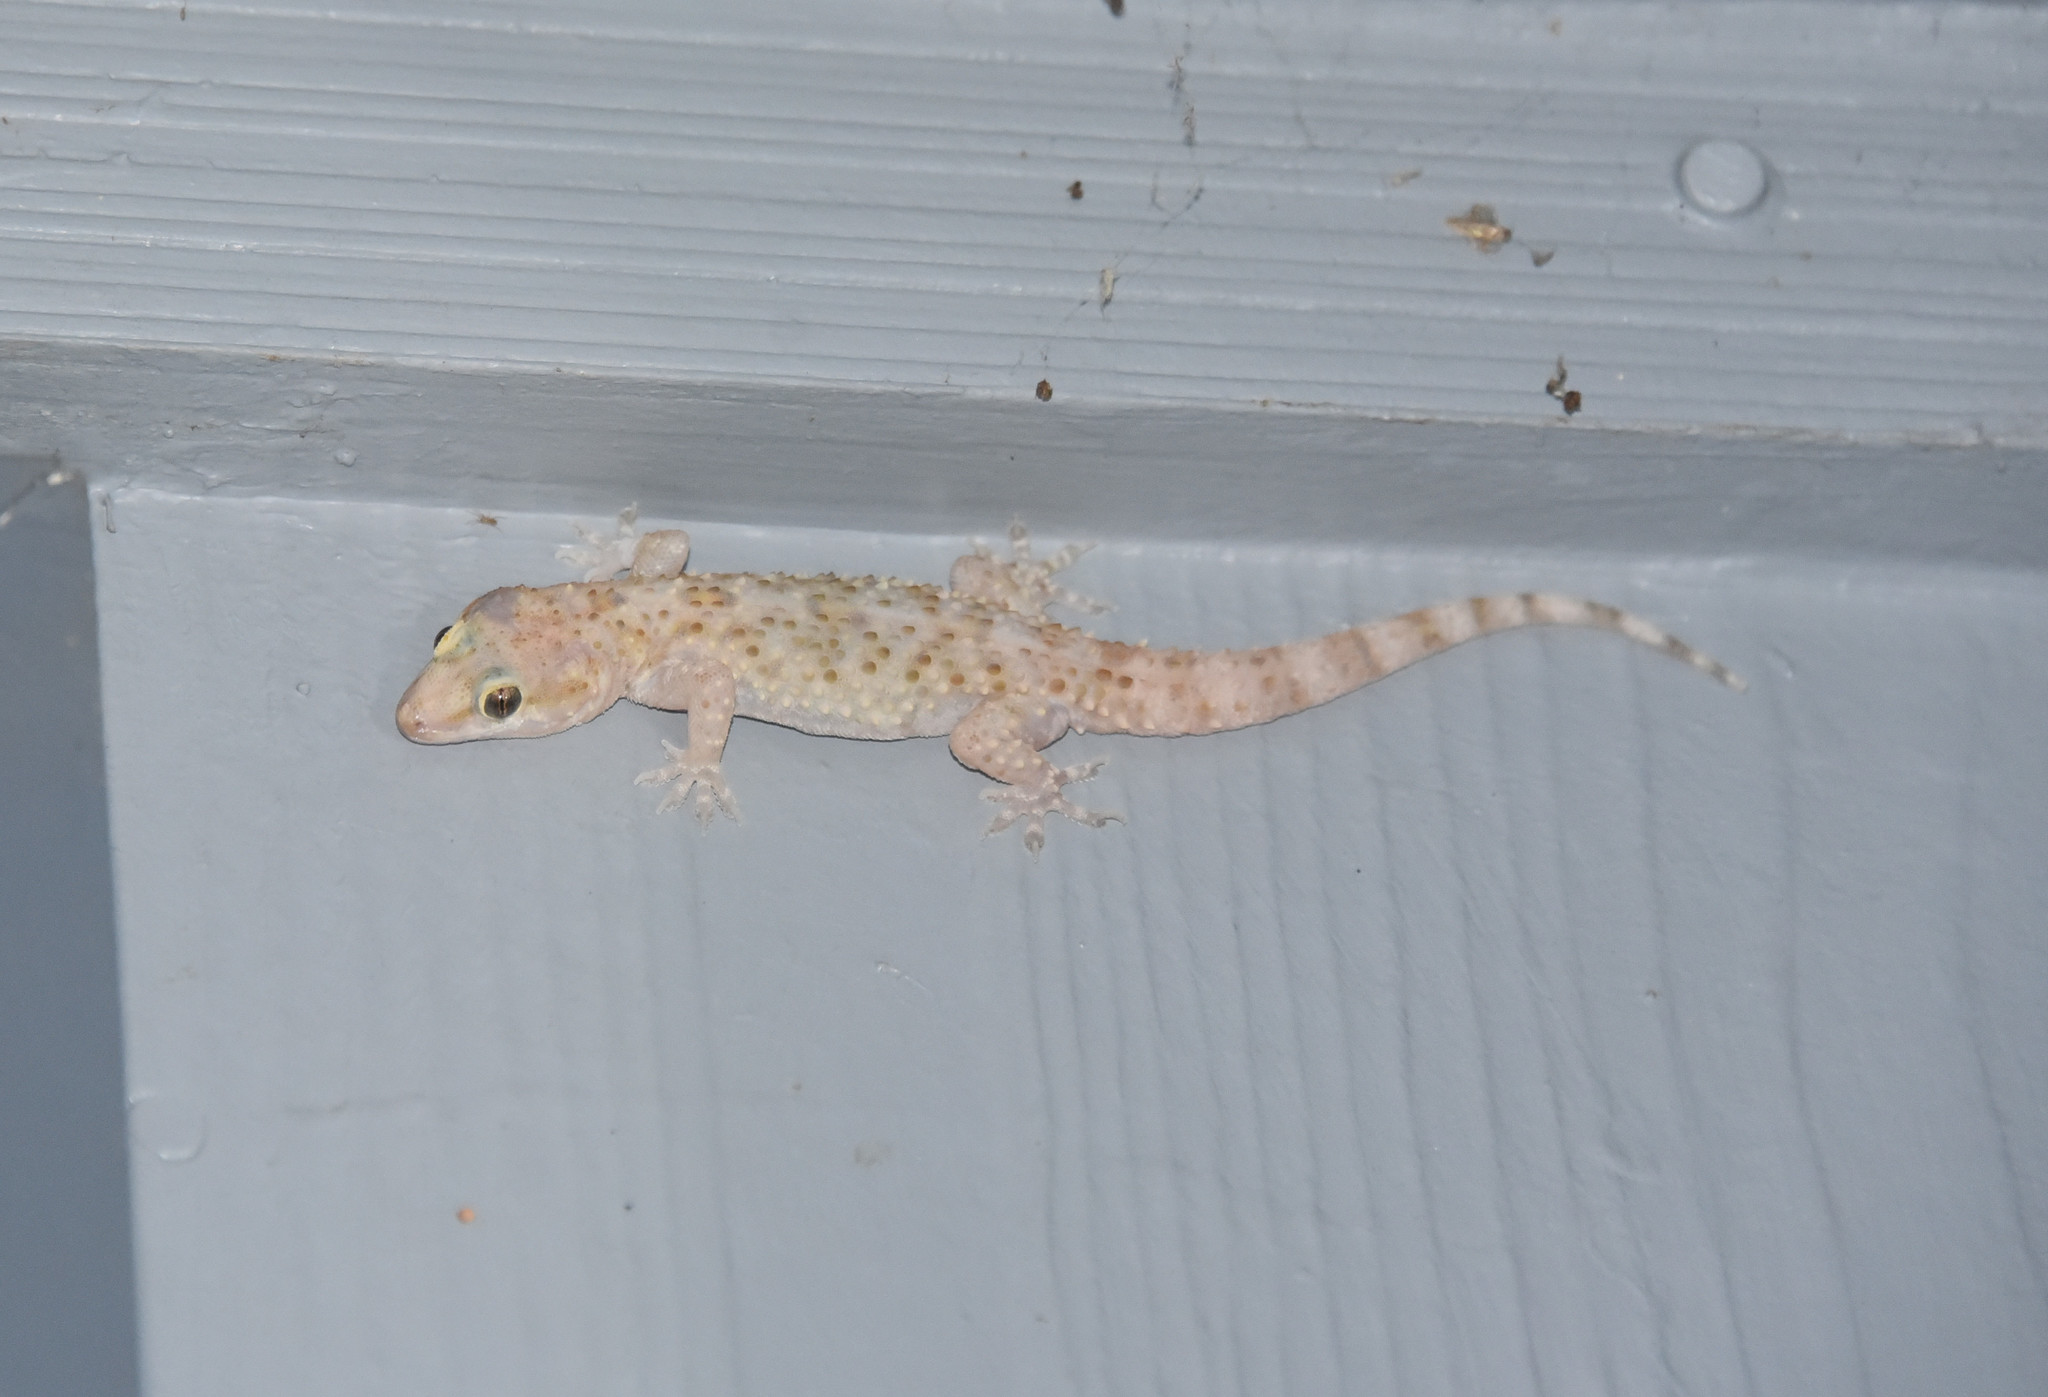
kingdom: Animalia
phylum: Chordata
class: Squamata
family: Gekkonidae
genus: Hemidactylus
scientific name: Hemidactylus turcicus
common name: Turkish gecko
